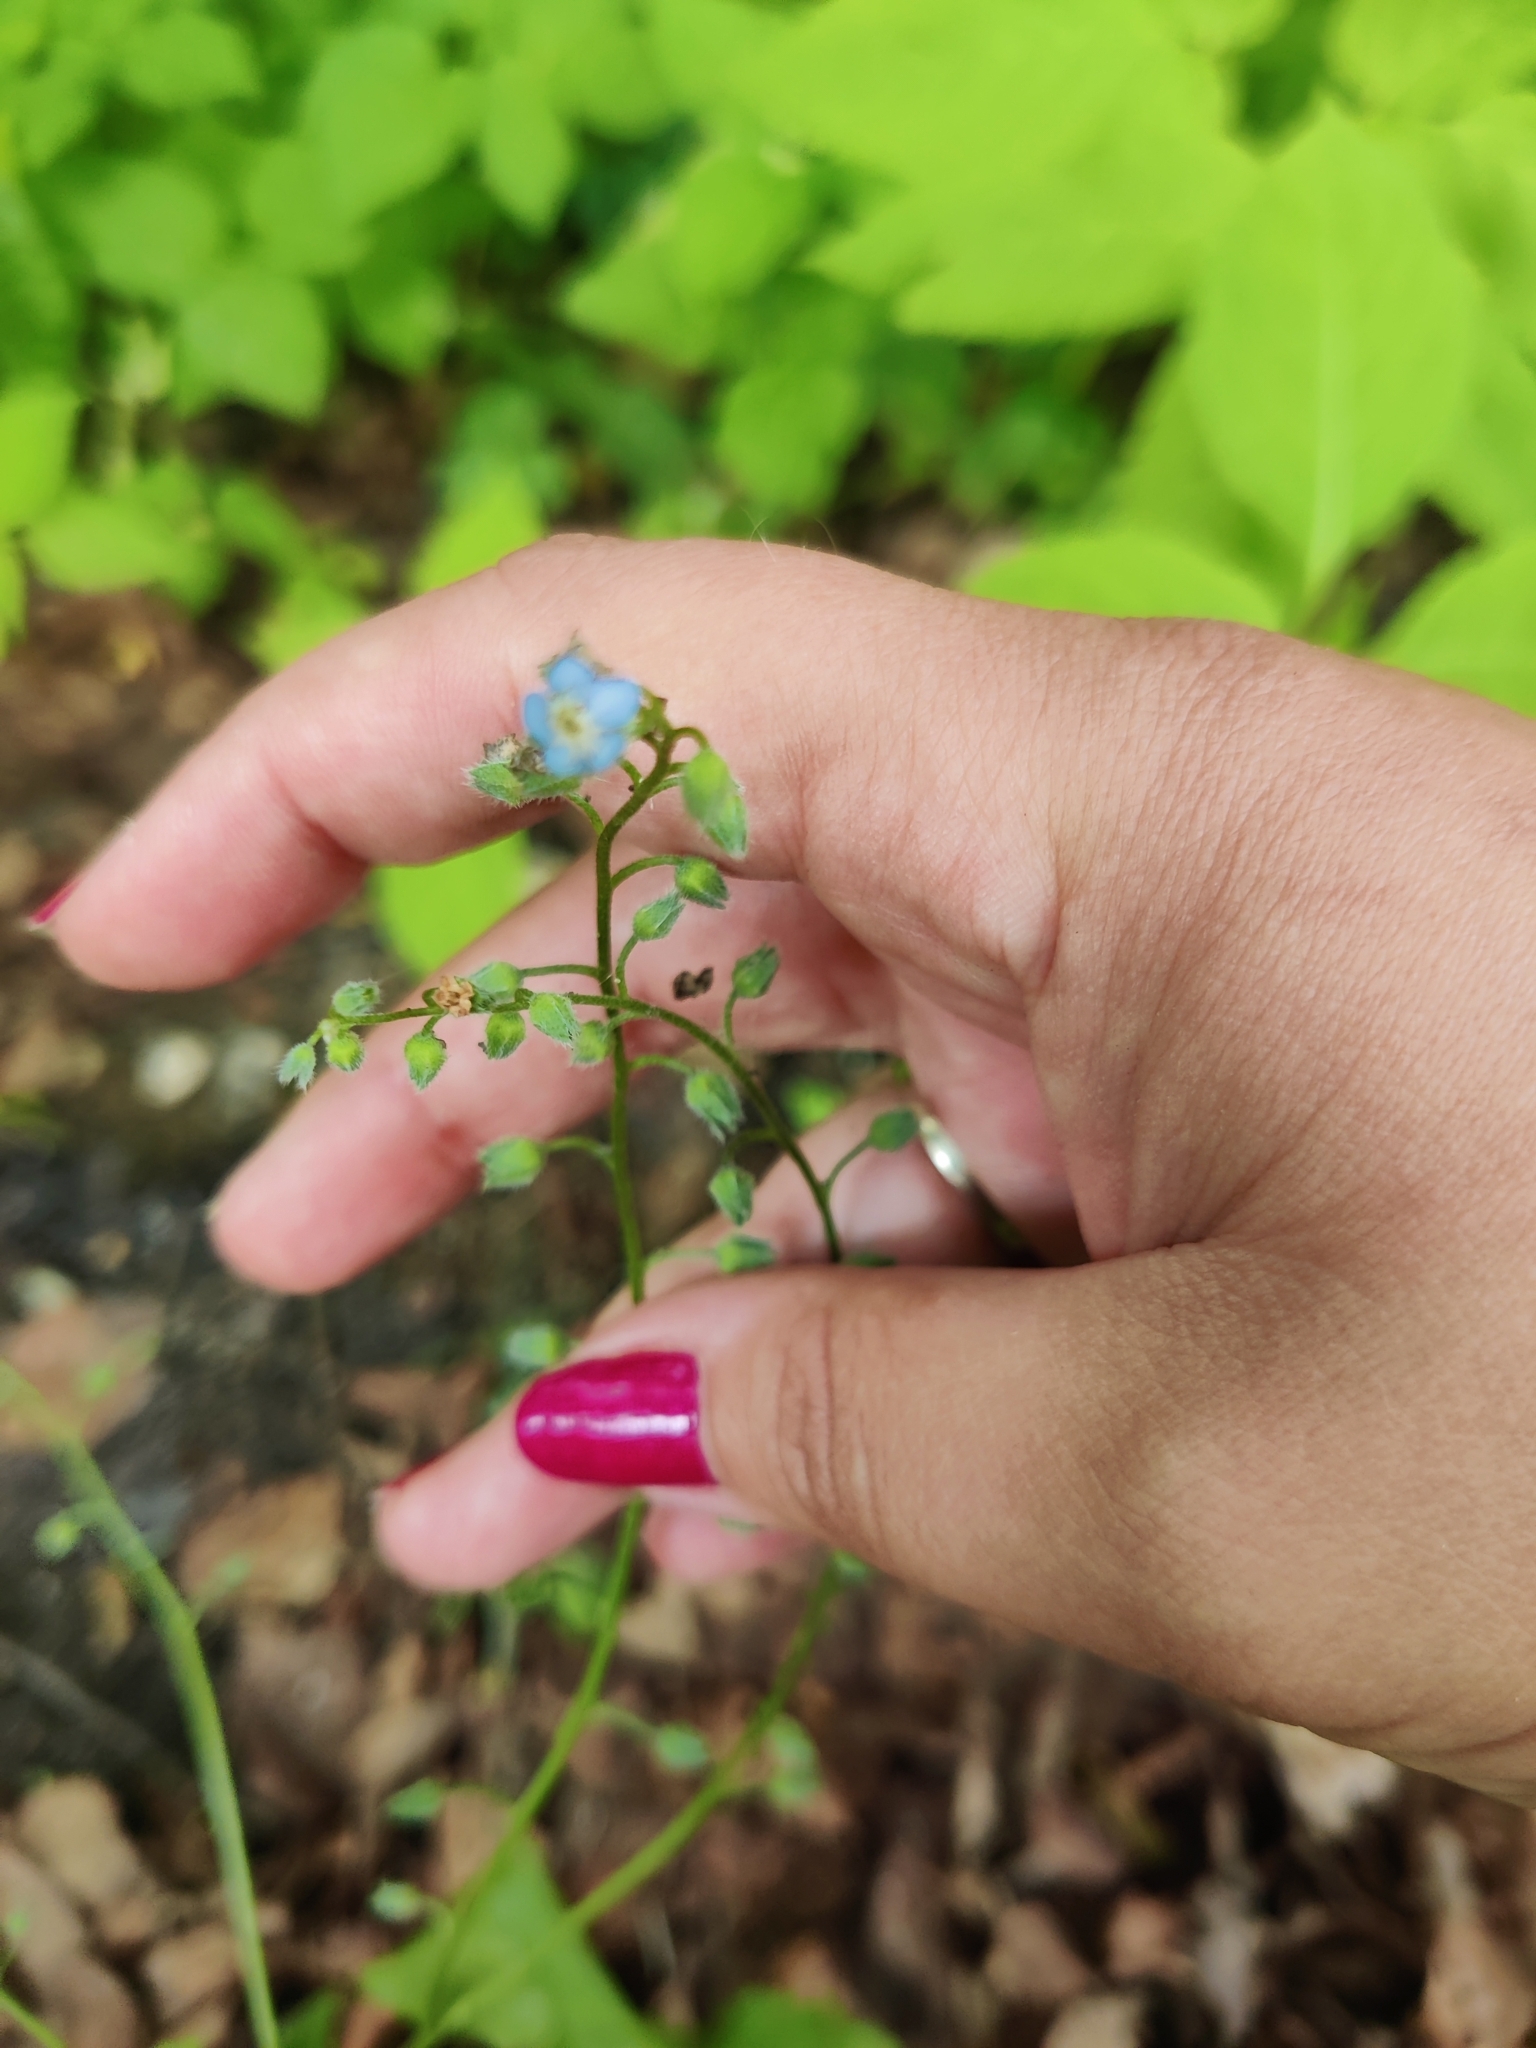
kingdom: Plantae
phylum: Tracheophyta
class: Magnoliopsida
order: Boraginales
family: Boraginaceae
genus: Myosotis
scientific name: Myosotis arvensis
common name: Field forget-me-not
